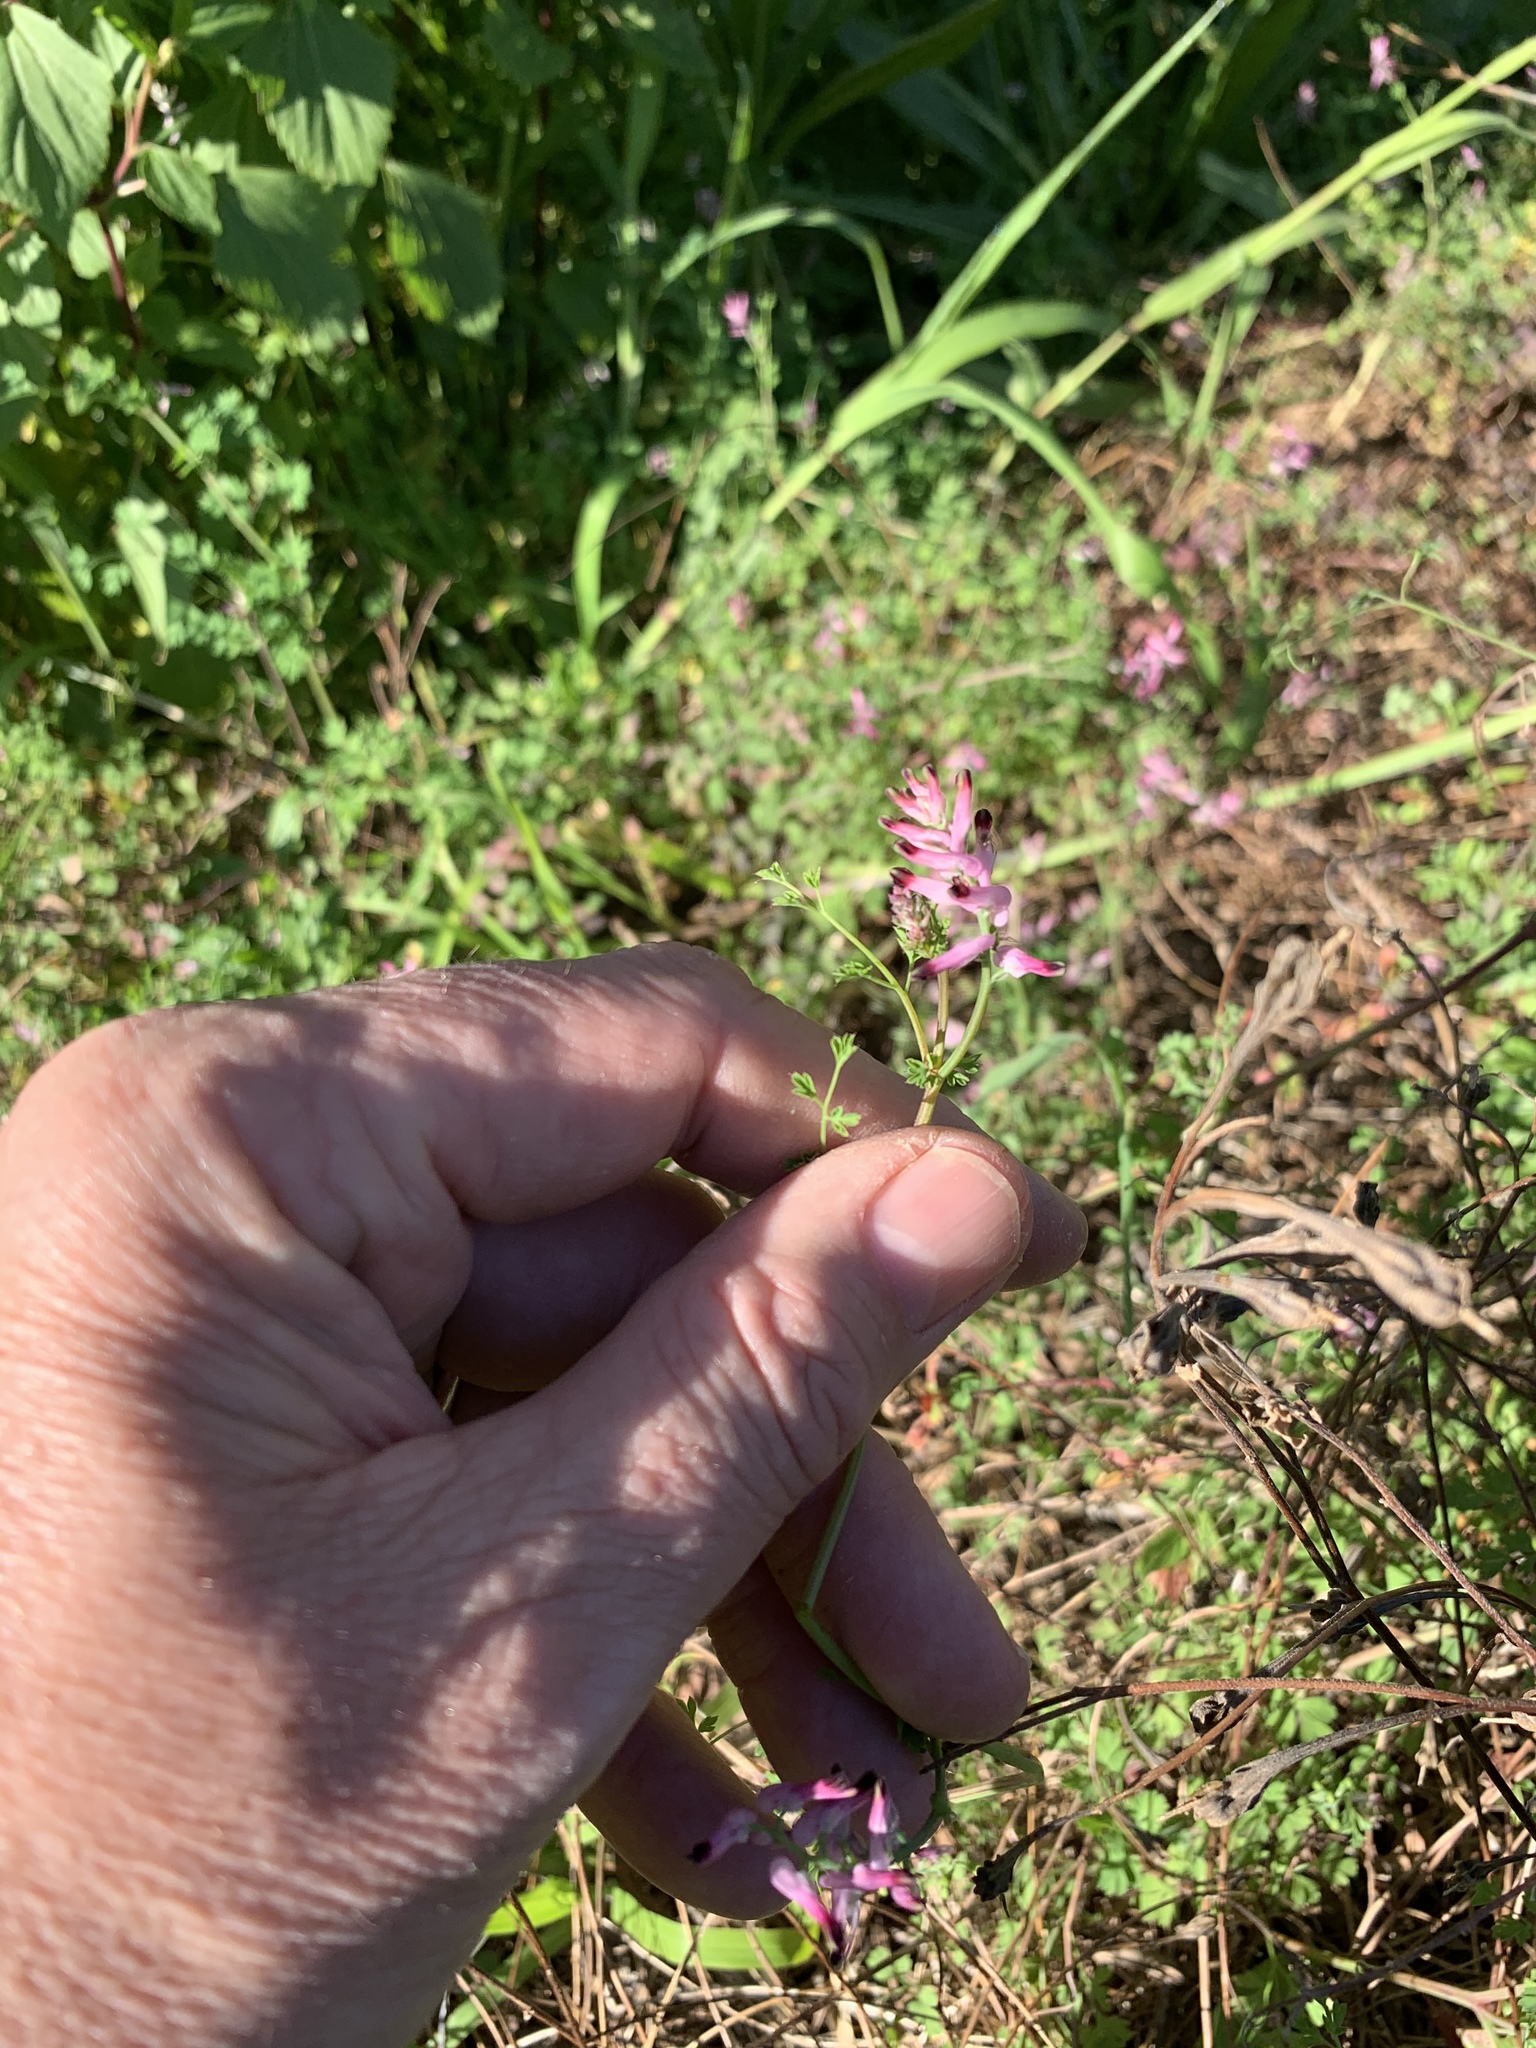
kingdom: Plantae
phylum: Tracheophyta
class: Magnoliopsida
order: Ranunculales
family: Papaveraceae
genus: Fumaria
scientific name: Fumaria muralis
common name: Common ramping-fumitory
